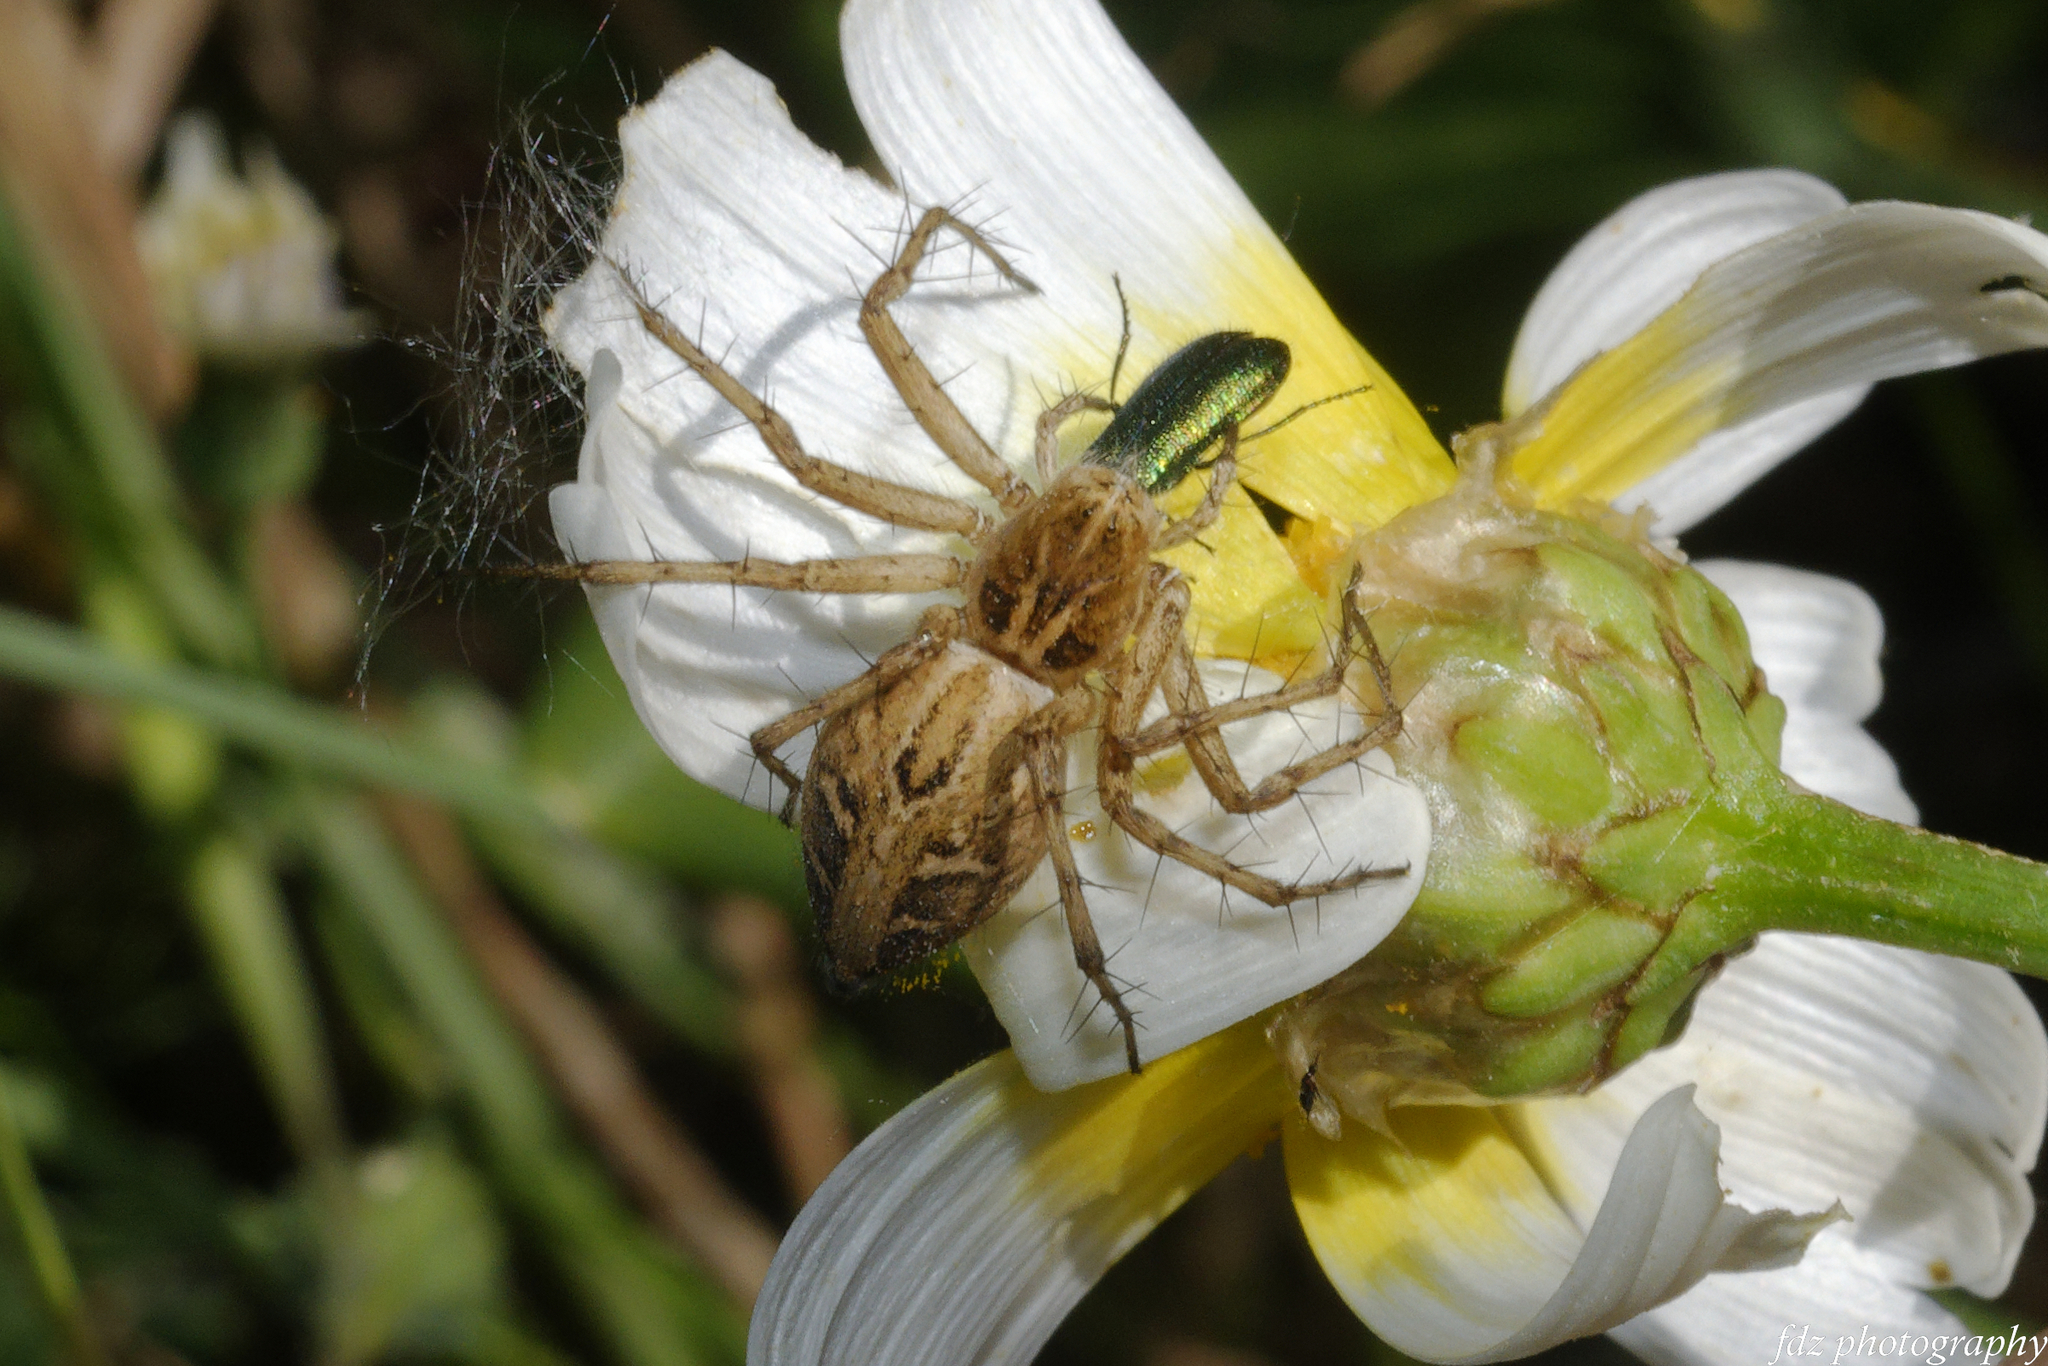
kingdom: Animalia
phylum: Arthropoda
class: Arachnida
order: Araneae
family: Oxyopidae
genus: Oxyopes
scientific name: Oxyopes heterophthalmus
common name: Lynx spider
